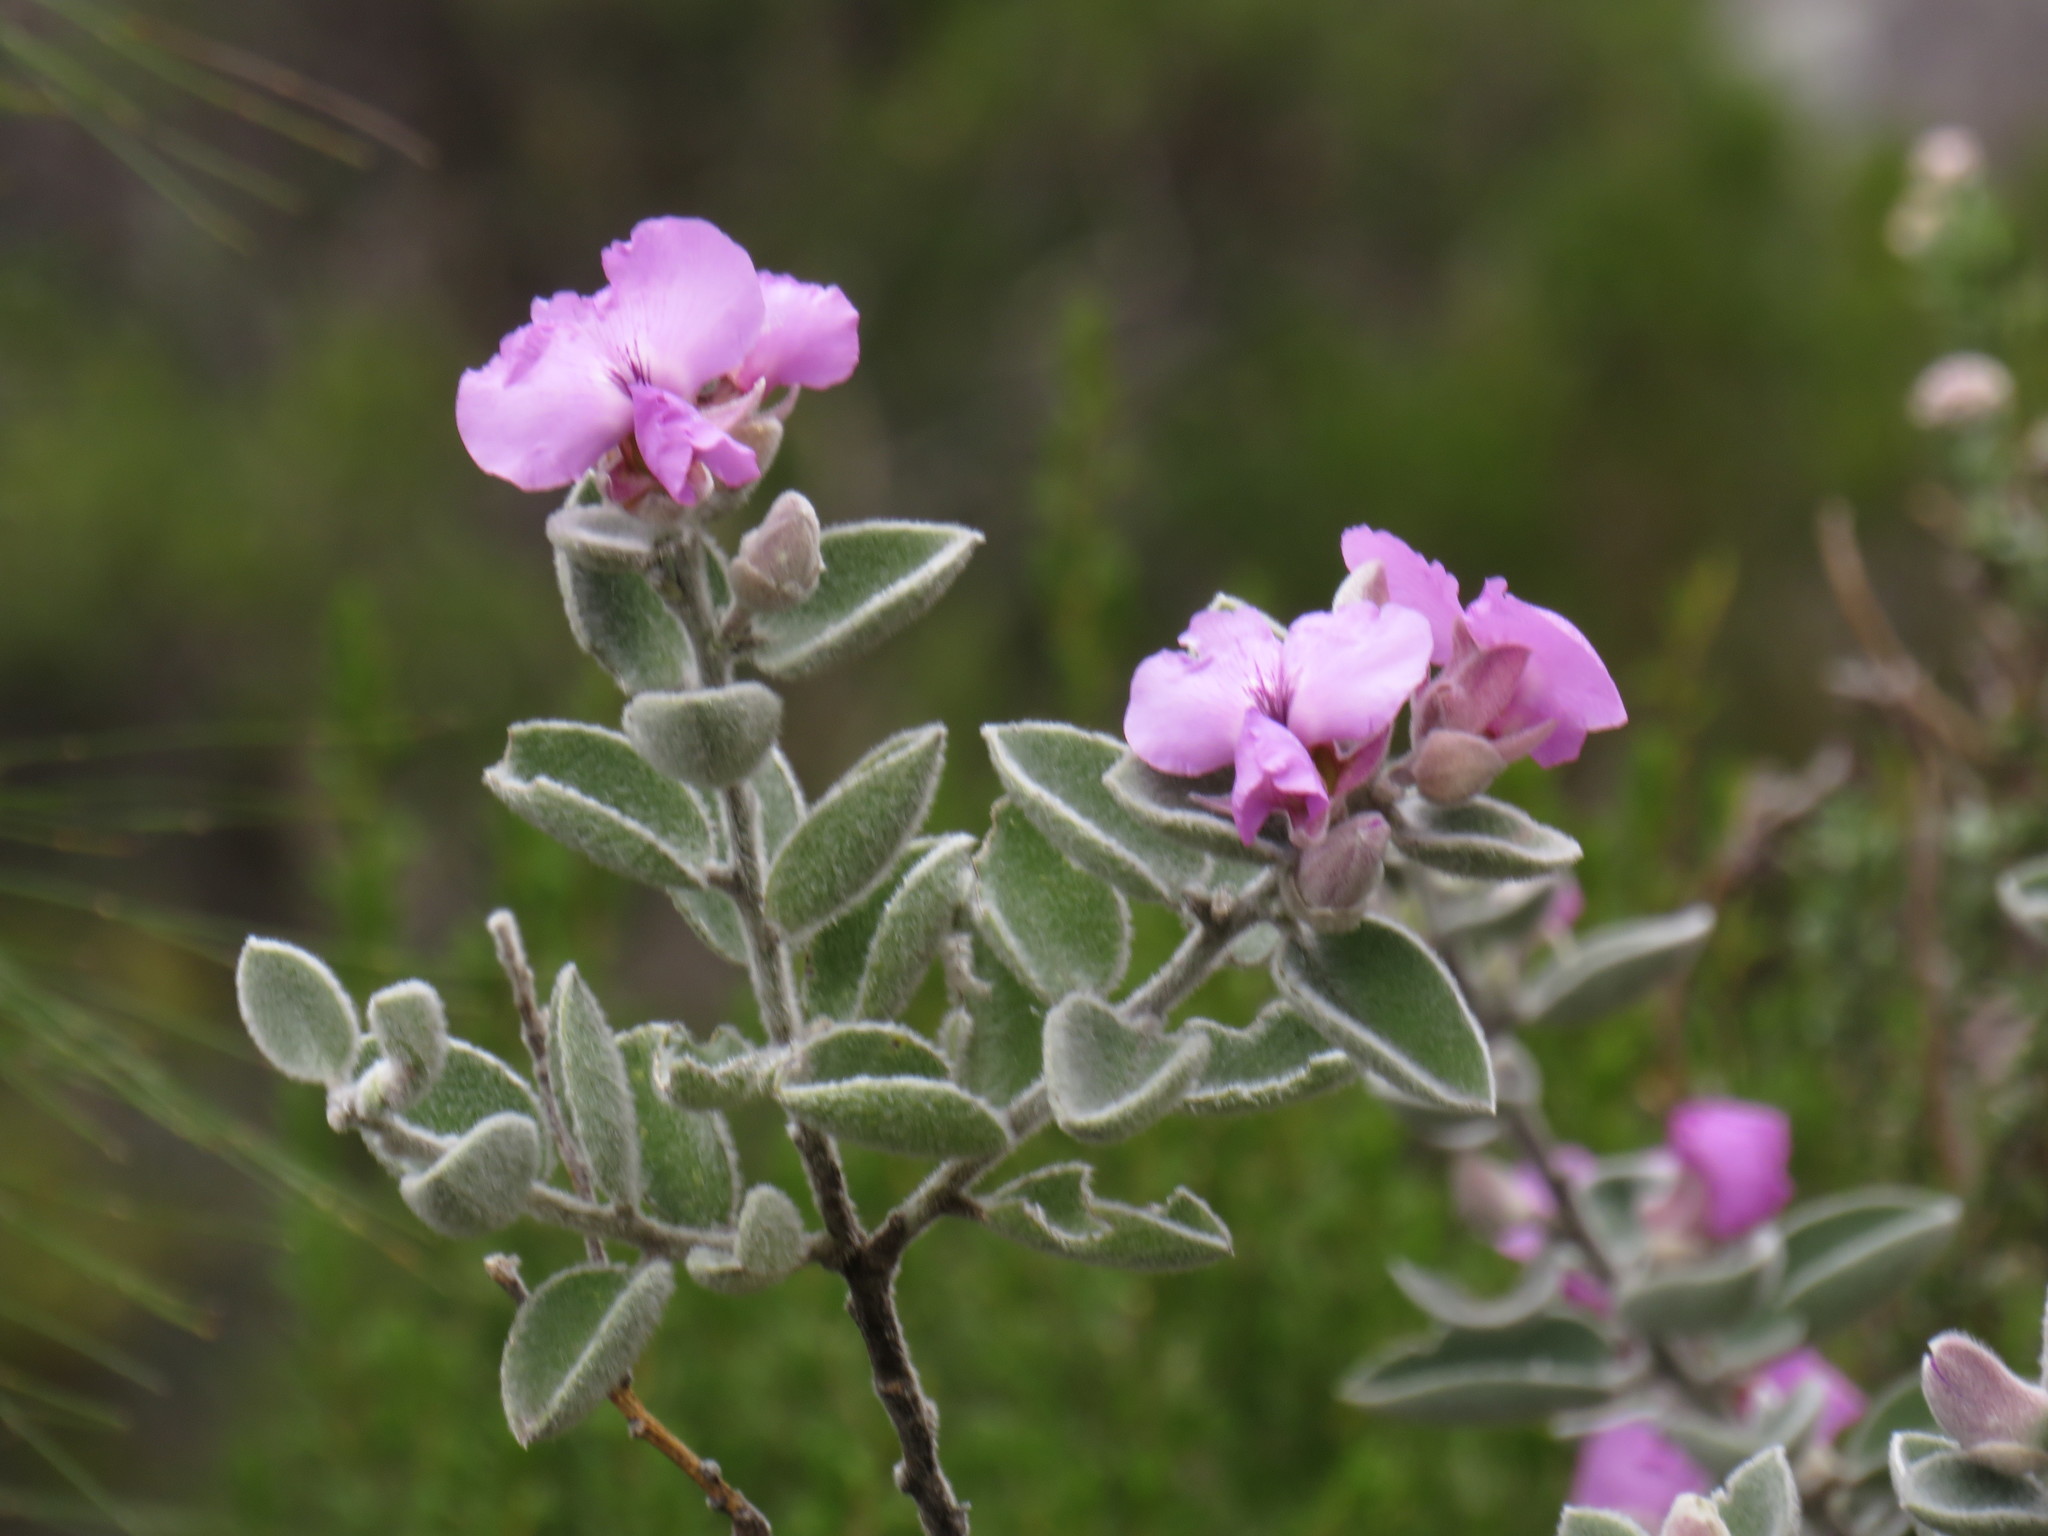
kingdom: Plantae
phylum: Tracheophyta
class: Magnoliopsida
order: Fabales
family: Fabaceae
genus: Podalyria
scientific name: Podalyria hirsuta
